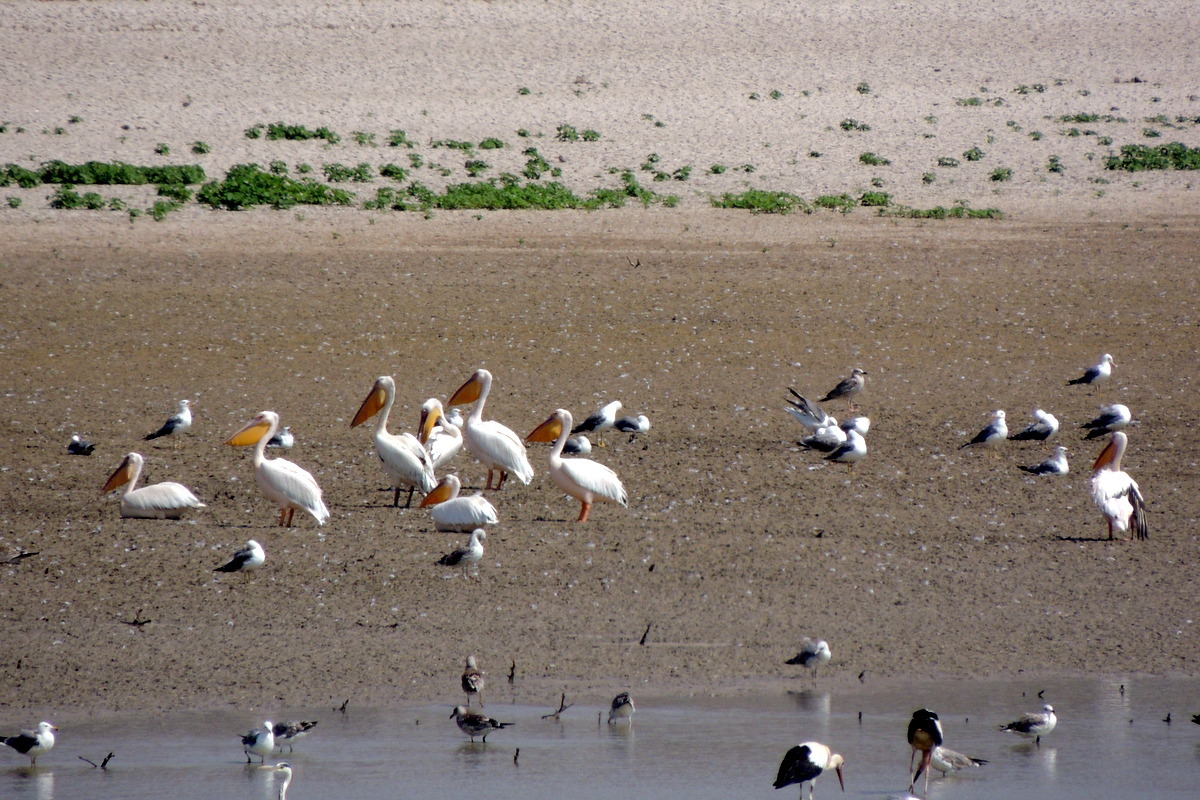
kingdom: Animalia
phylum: Chordata
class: Aves
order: Pelecaniformes
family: Pelecanidae
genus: Pelecanus
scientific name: Pelecanus onocrotalus
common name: Great white pelican
